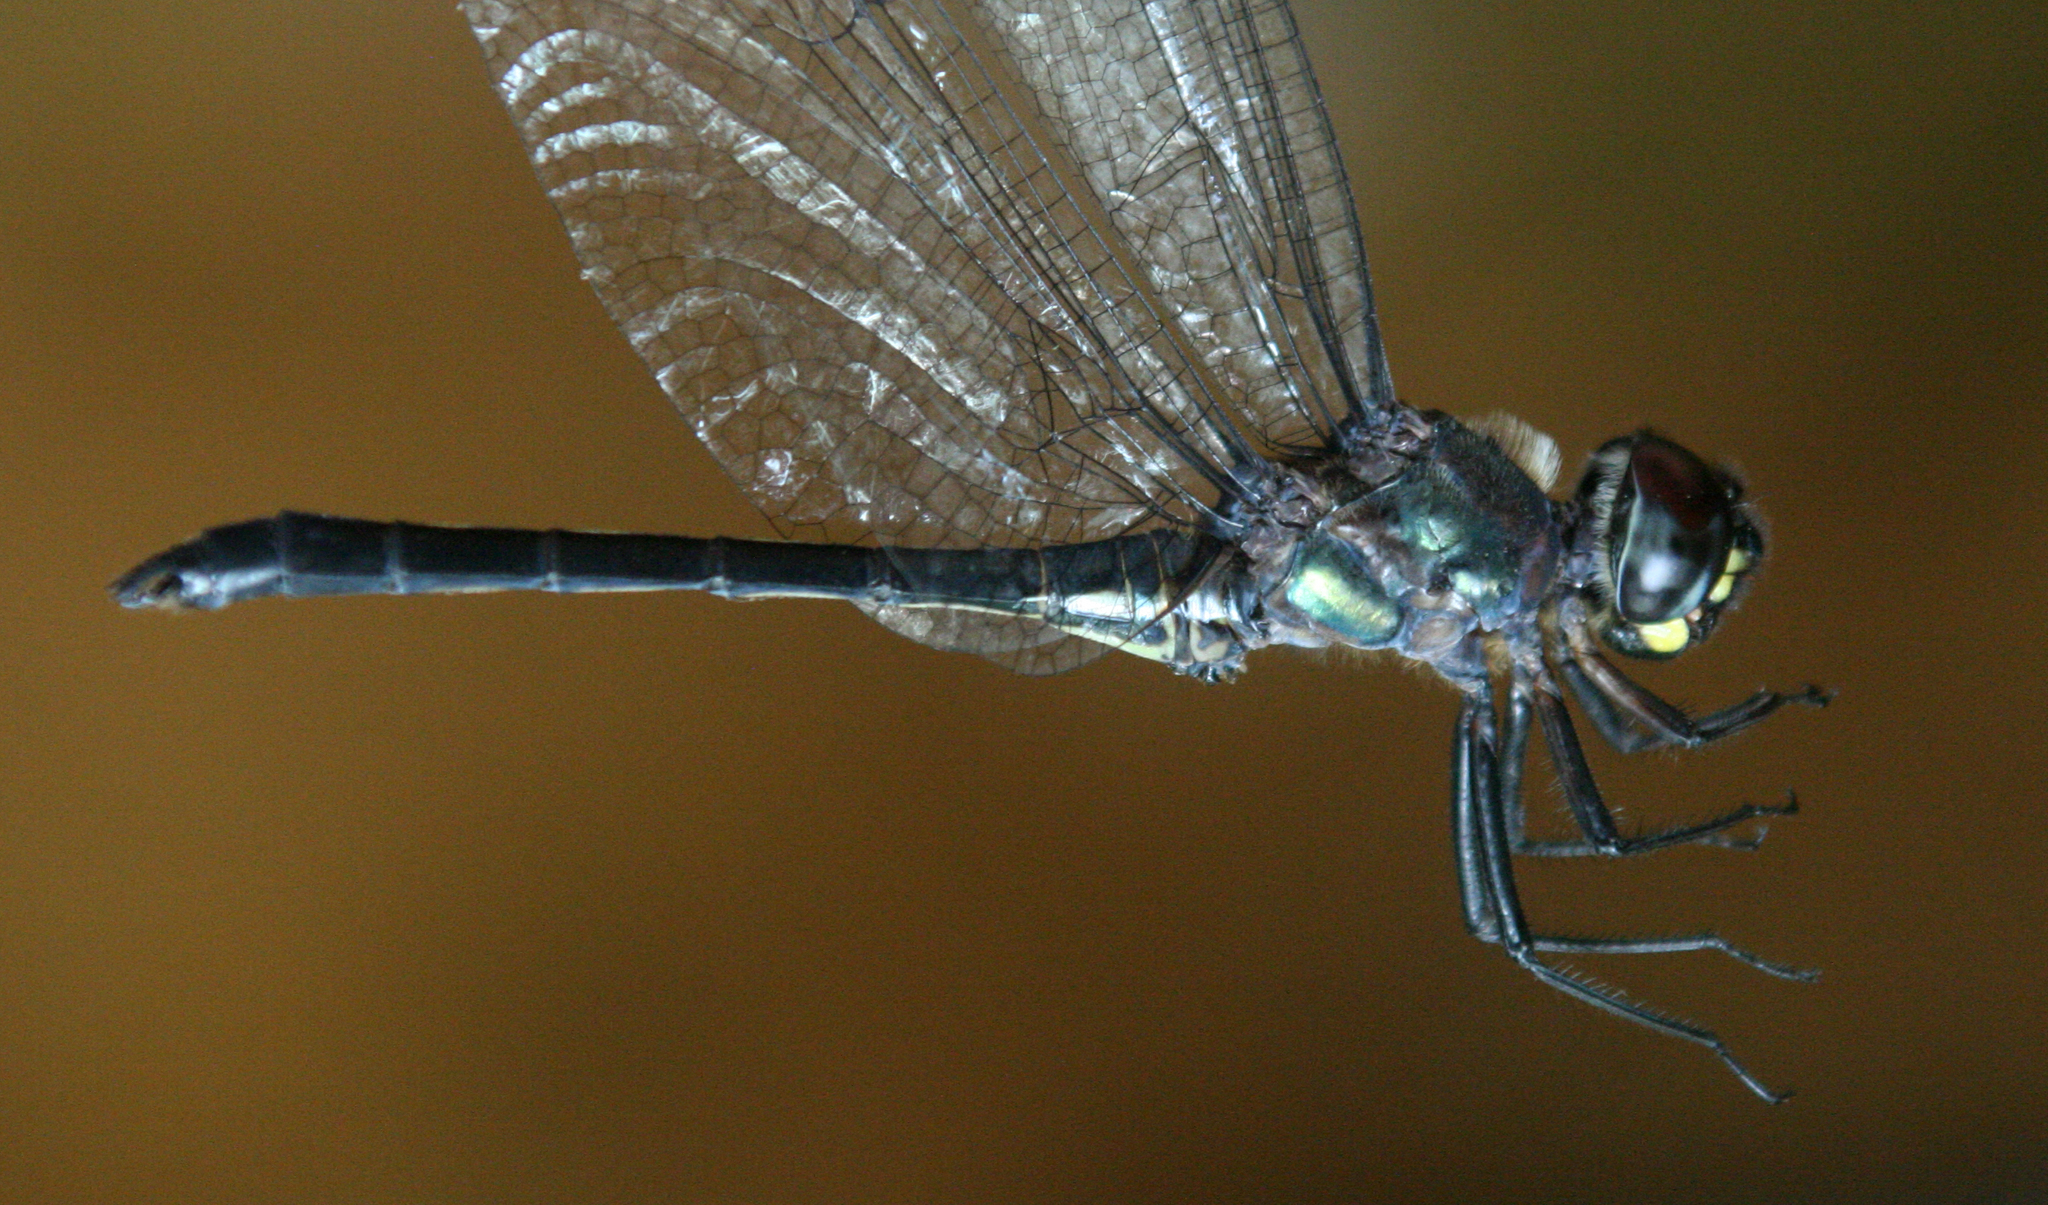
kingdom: Animalia
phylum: Arthropoda
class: Insecta
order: Odonata
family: Libellulidae
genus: Zygonyx
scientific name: Zygonyx iris
